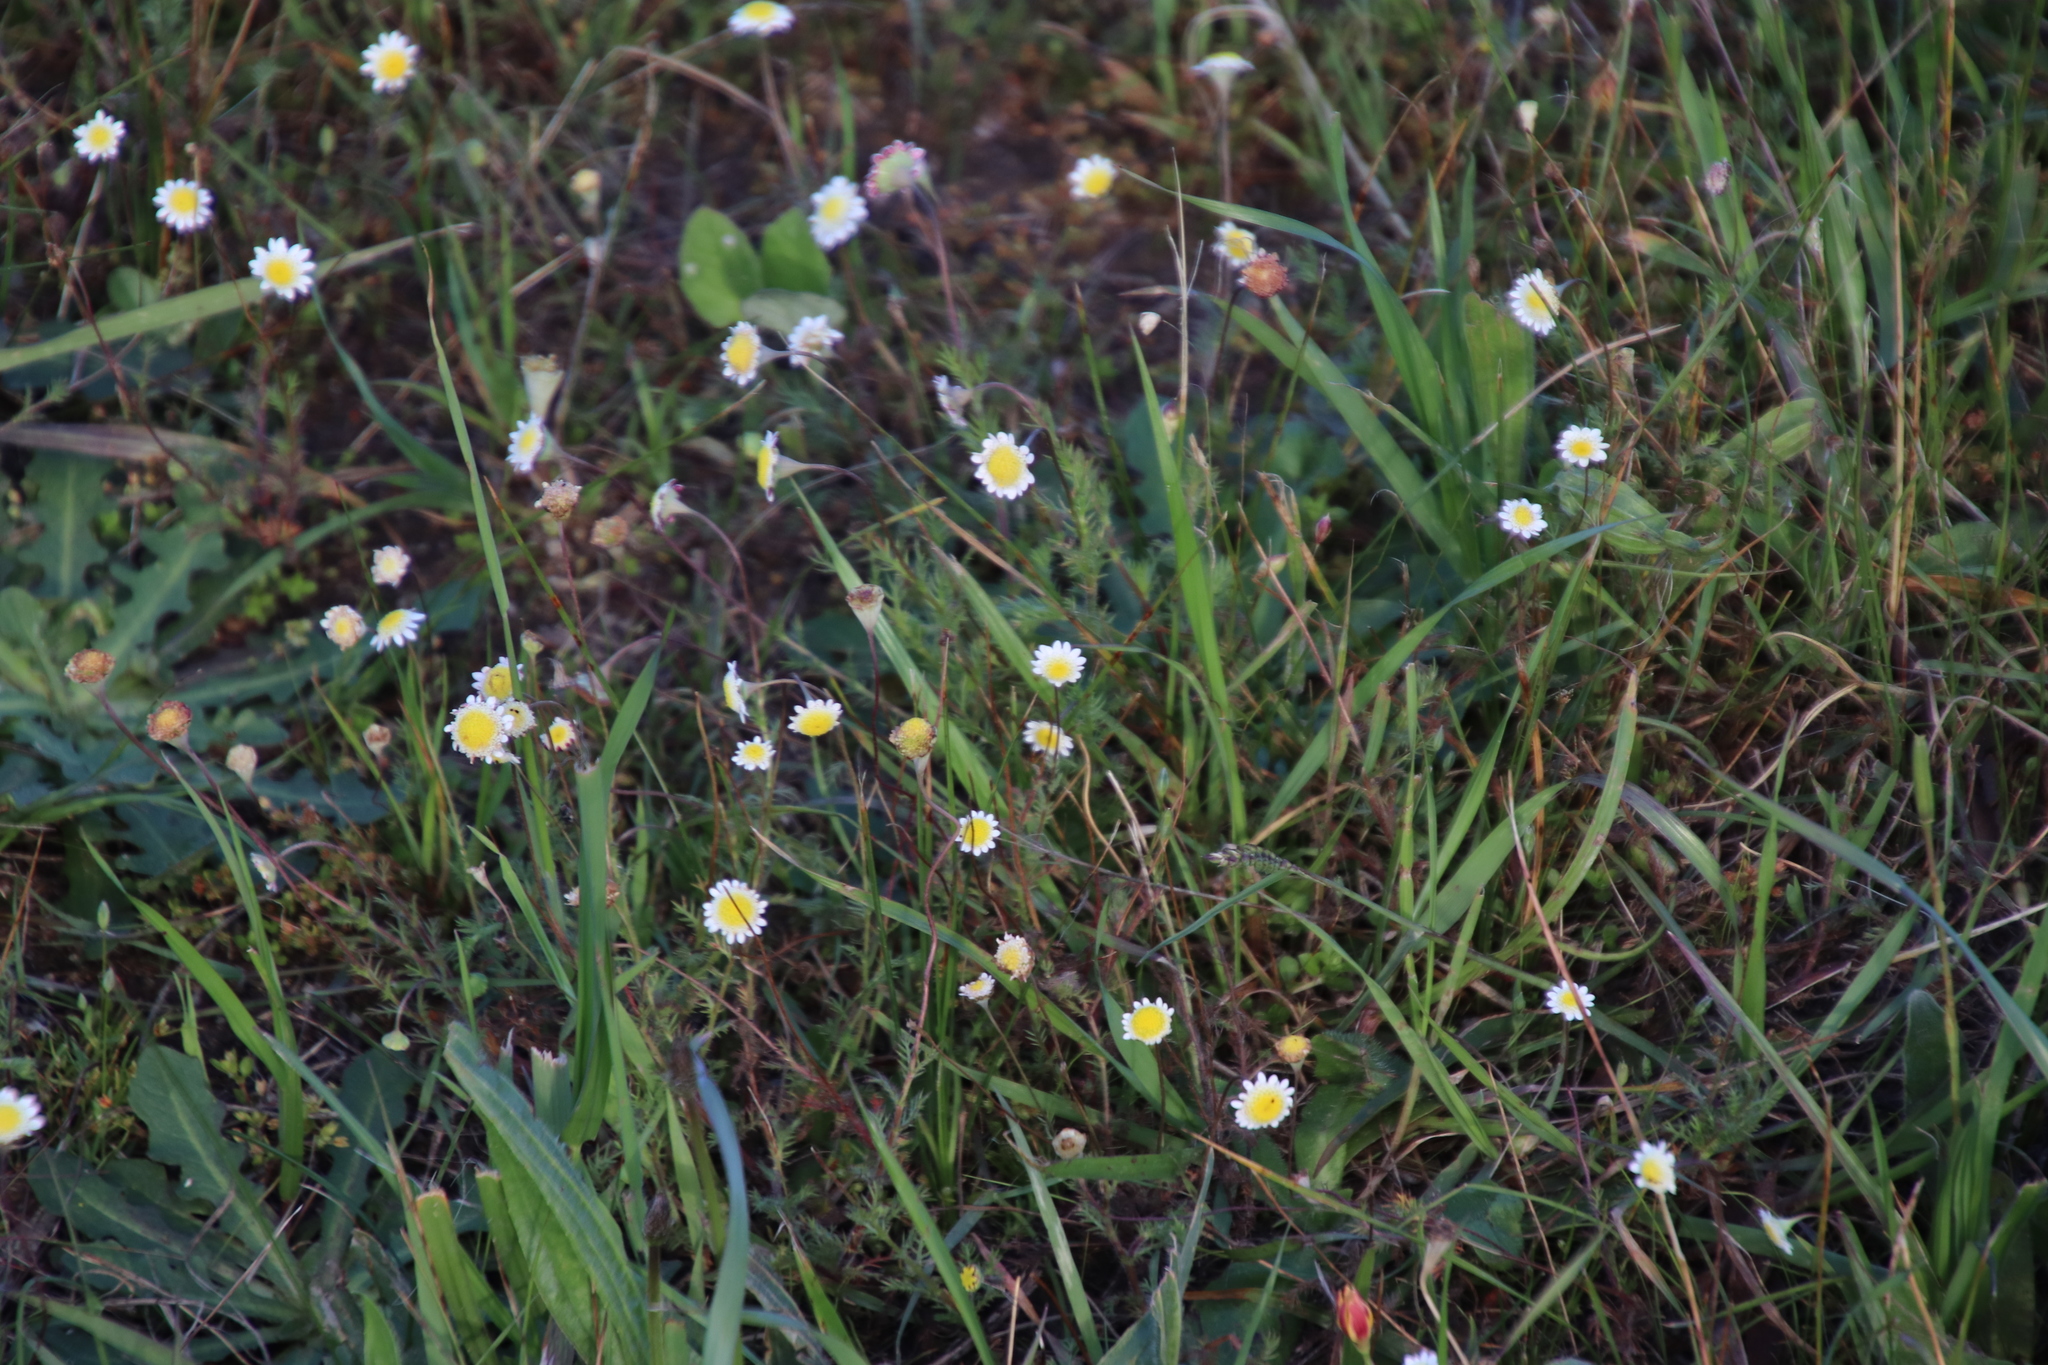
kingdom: Plantae
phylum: Tracheophyta
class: Magnoliopsida
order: Asterales
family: Asteraceae
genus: Cotula
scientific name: Cotula turbinata
